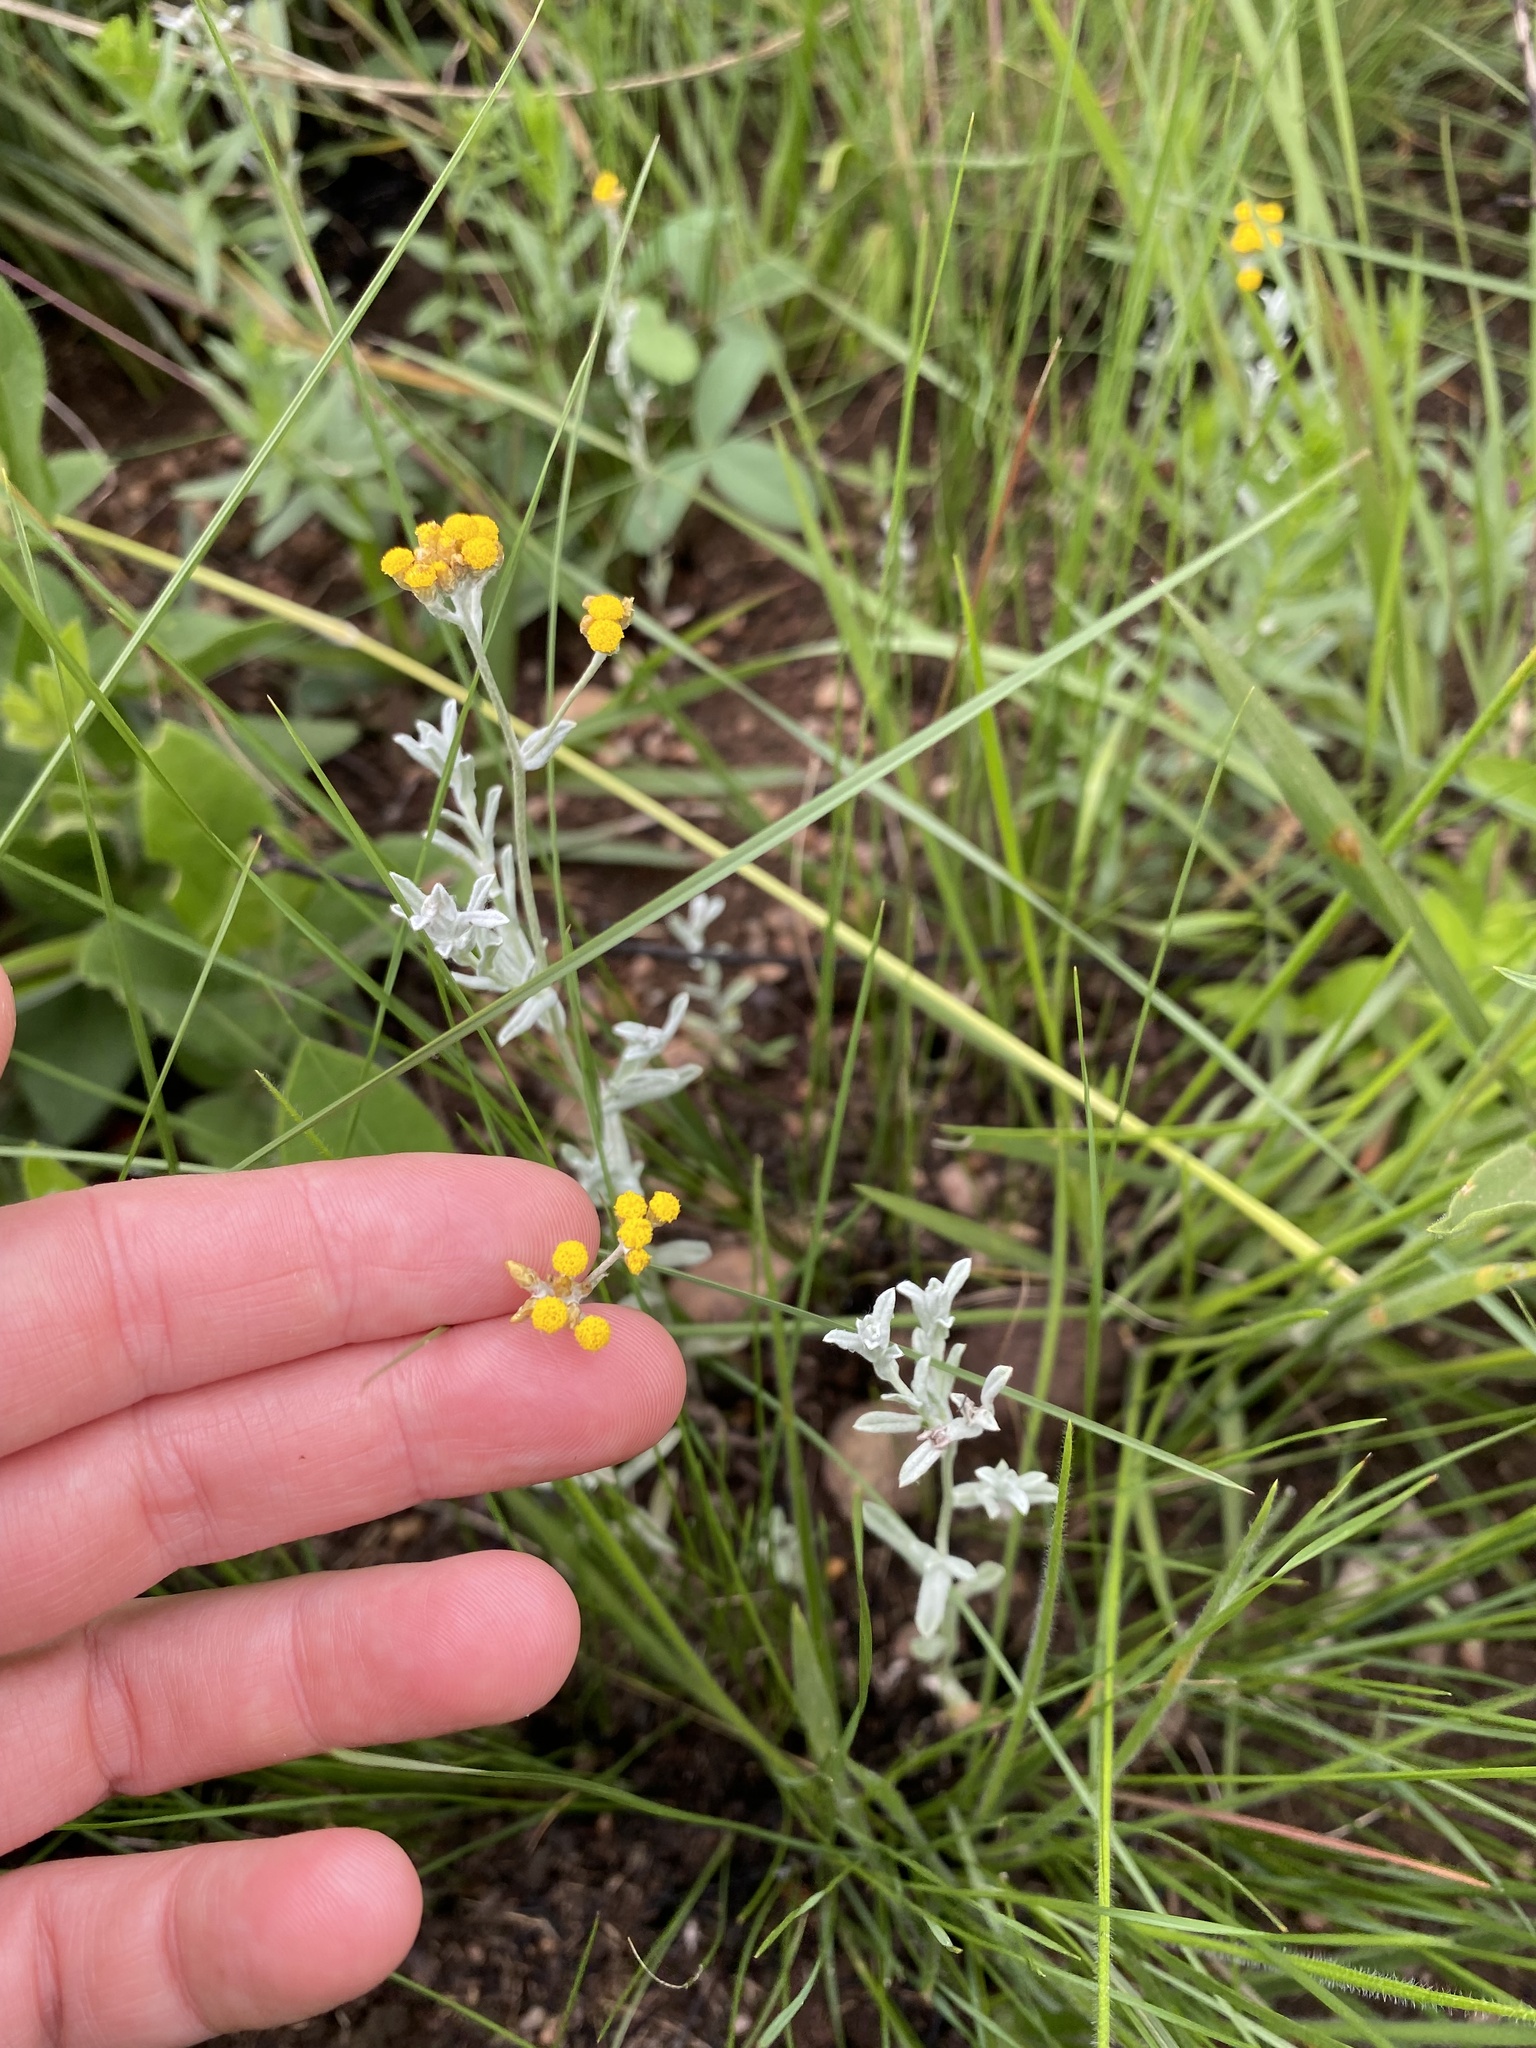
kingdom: Plantae
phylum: Tracheophyta
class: Magnoliopsida
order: Asterales
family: Asteraceae
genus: Helichrysum
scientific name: Helichrysum aureonitens
